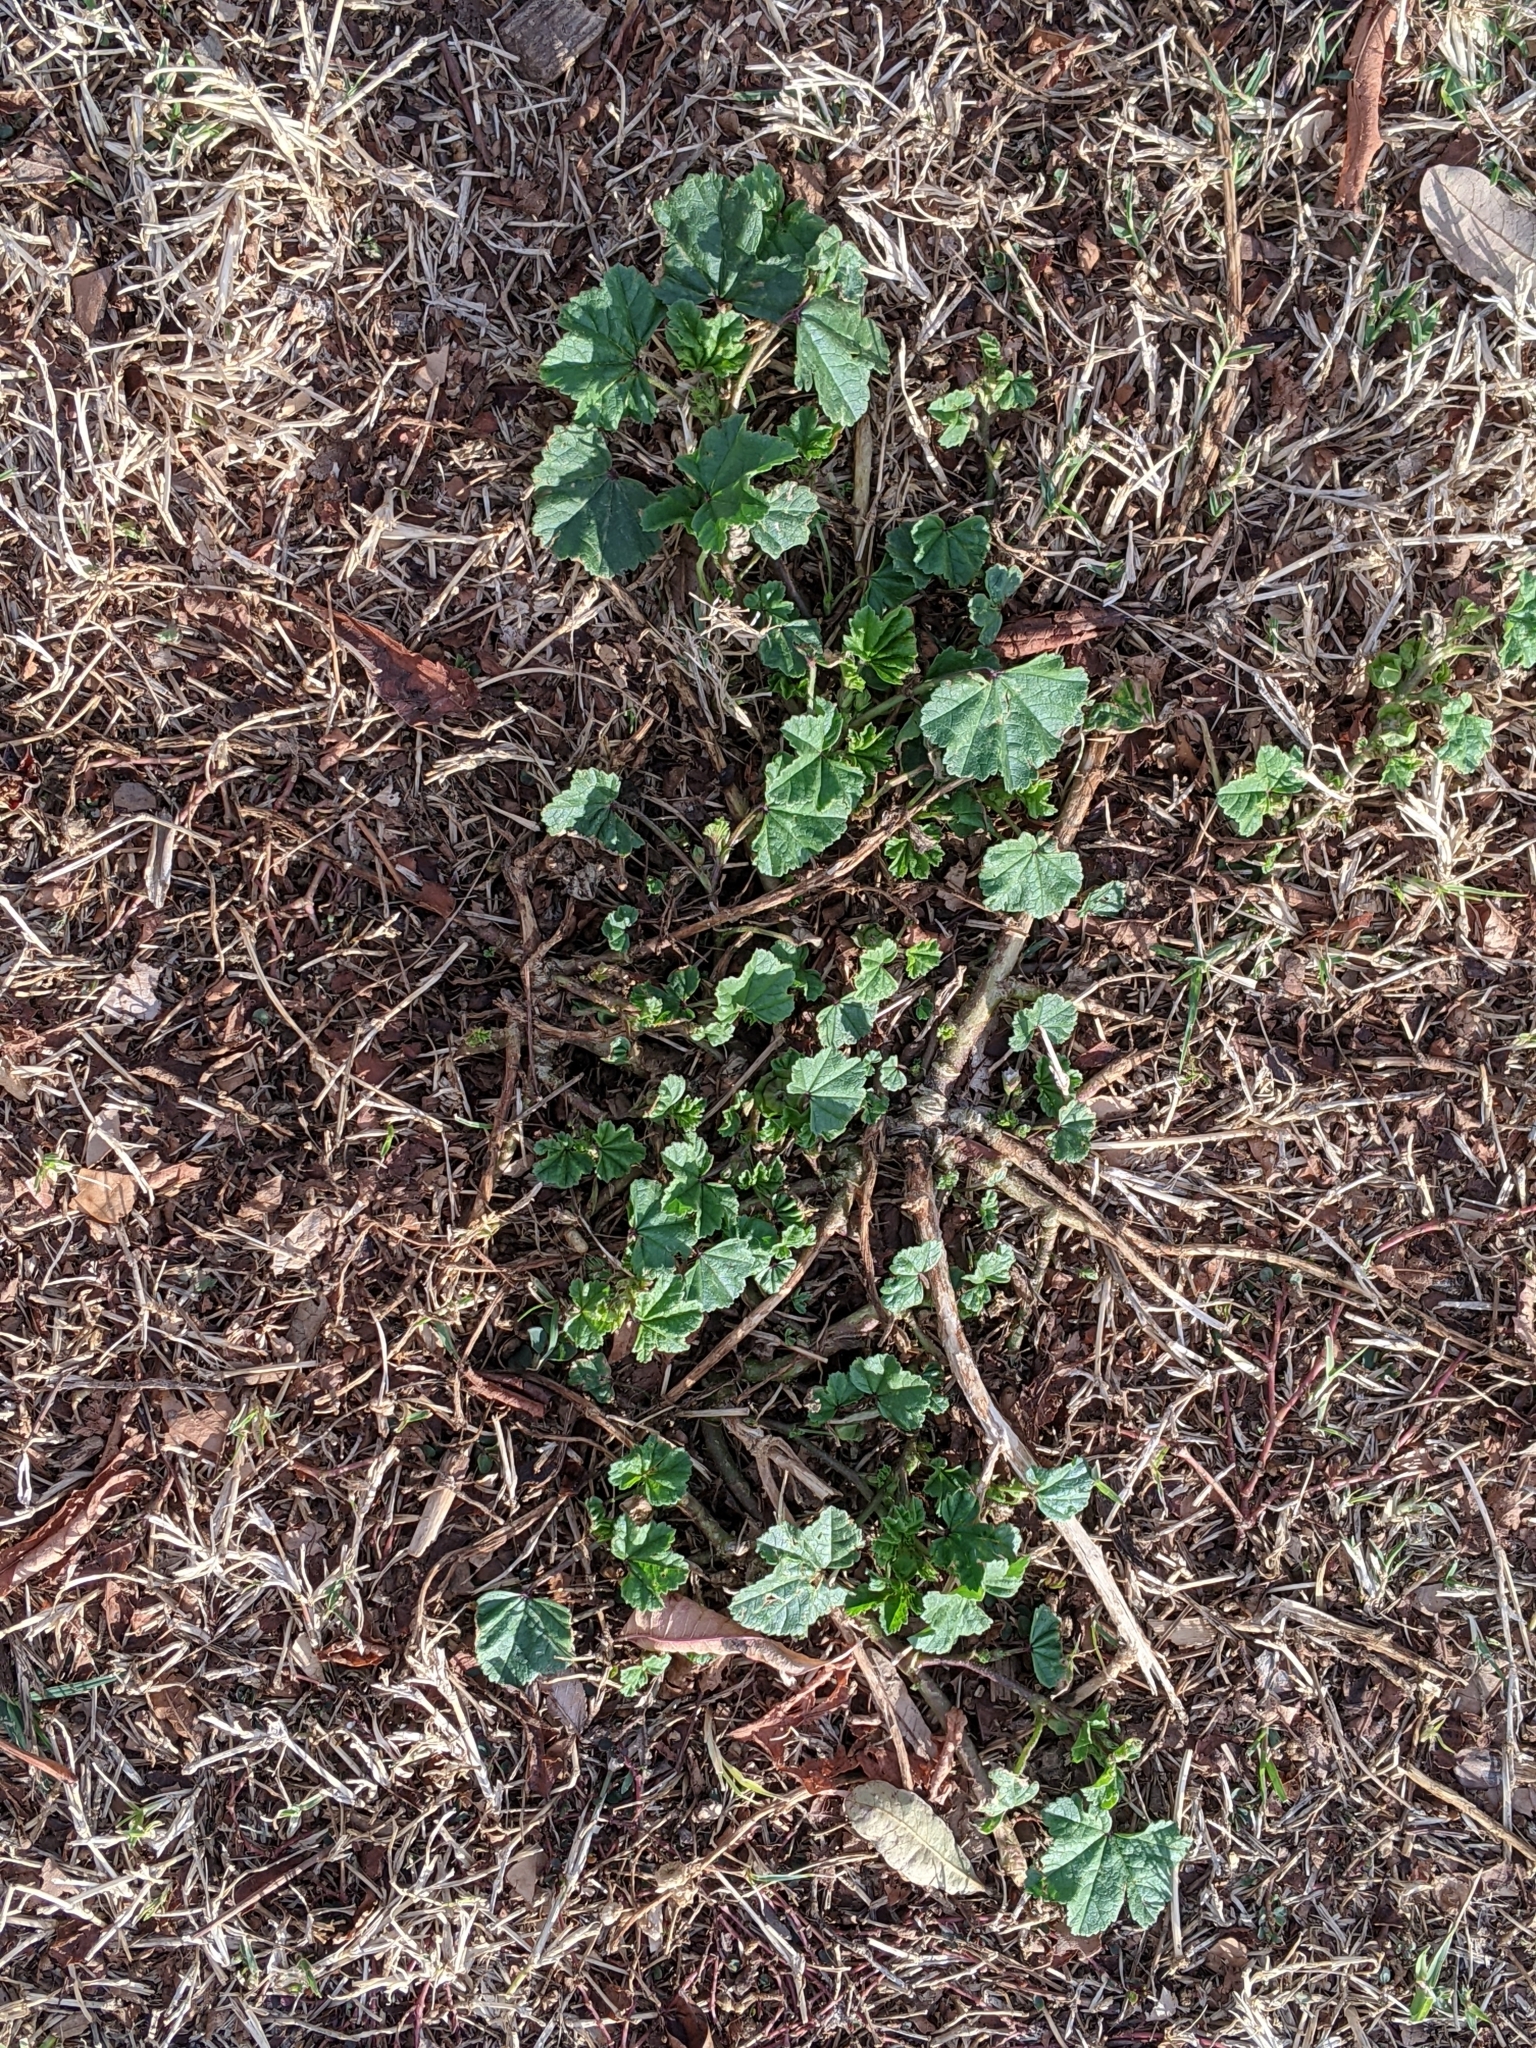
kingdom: Plantae
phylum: Tracheophyta
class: Magnoliopsida
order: Malvales
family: Malvaceae
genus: Malva
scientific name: Malva parviflora
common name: Least mallow
